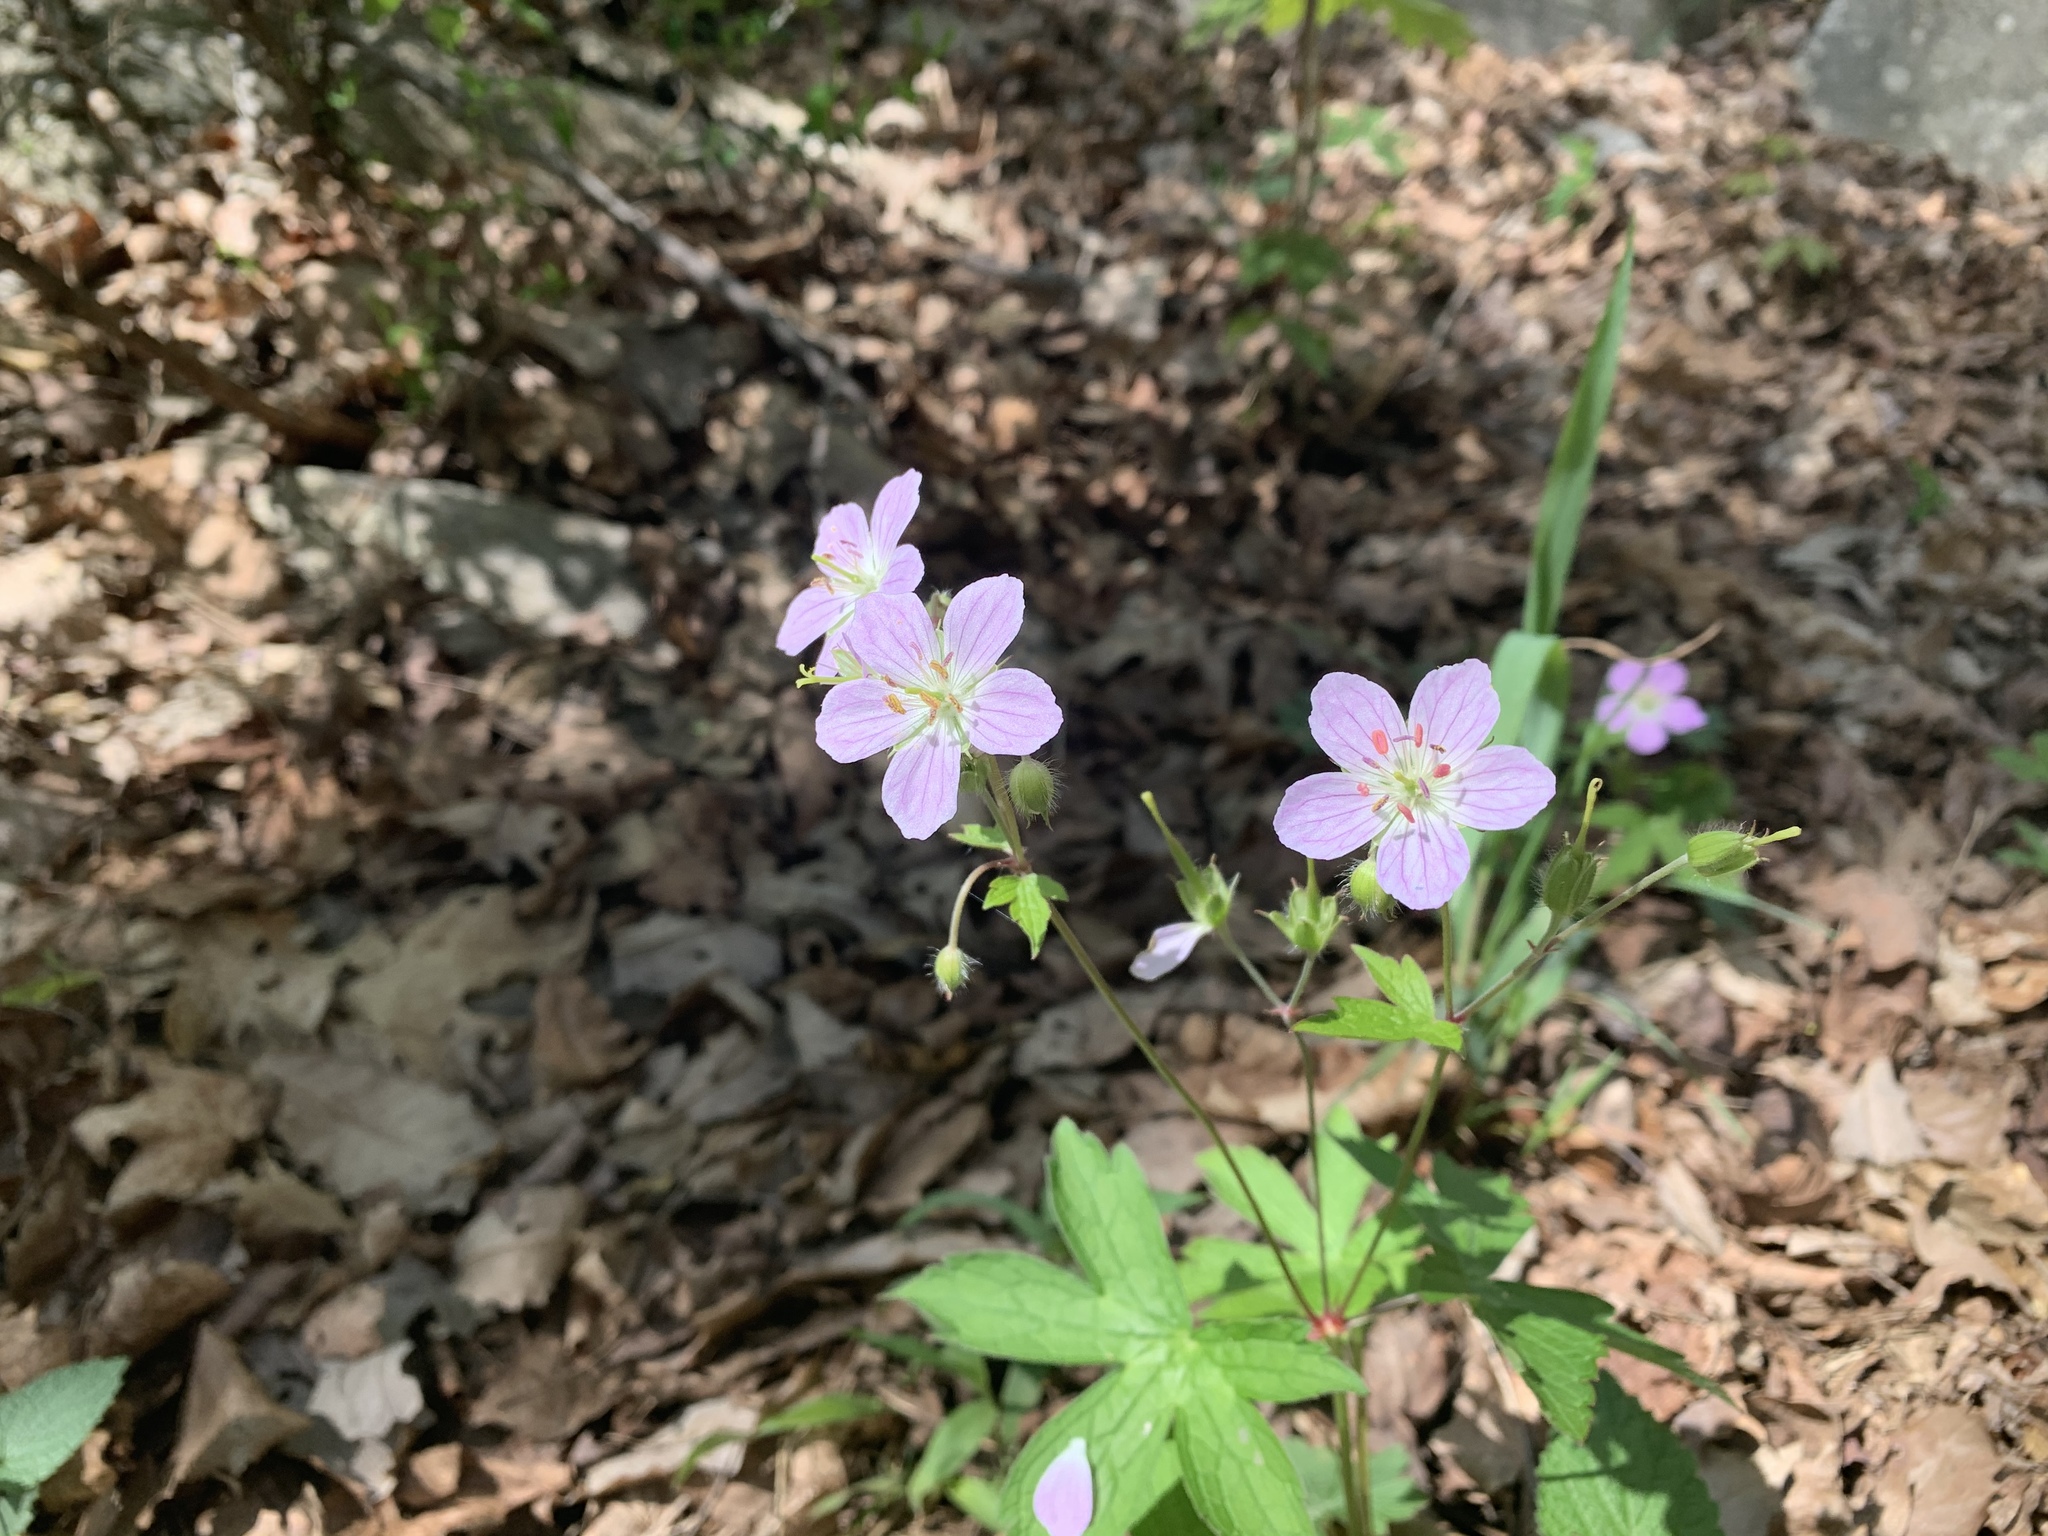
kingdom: Plantae
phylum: Tracheophyta
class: Magnoliopsida
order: Geraniales
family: Geraniaceae
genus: Geranium
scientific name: Geranium maculatum
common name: Spotted geranium
